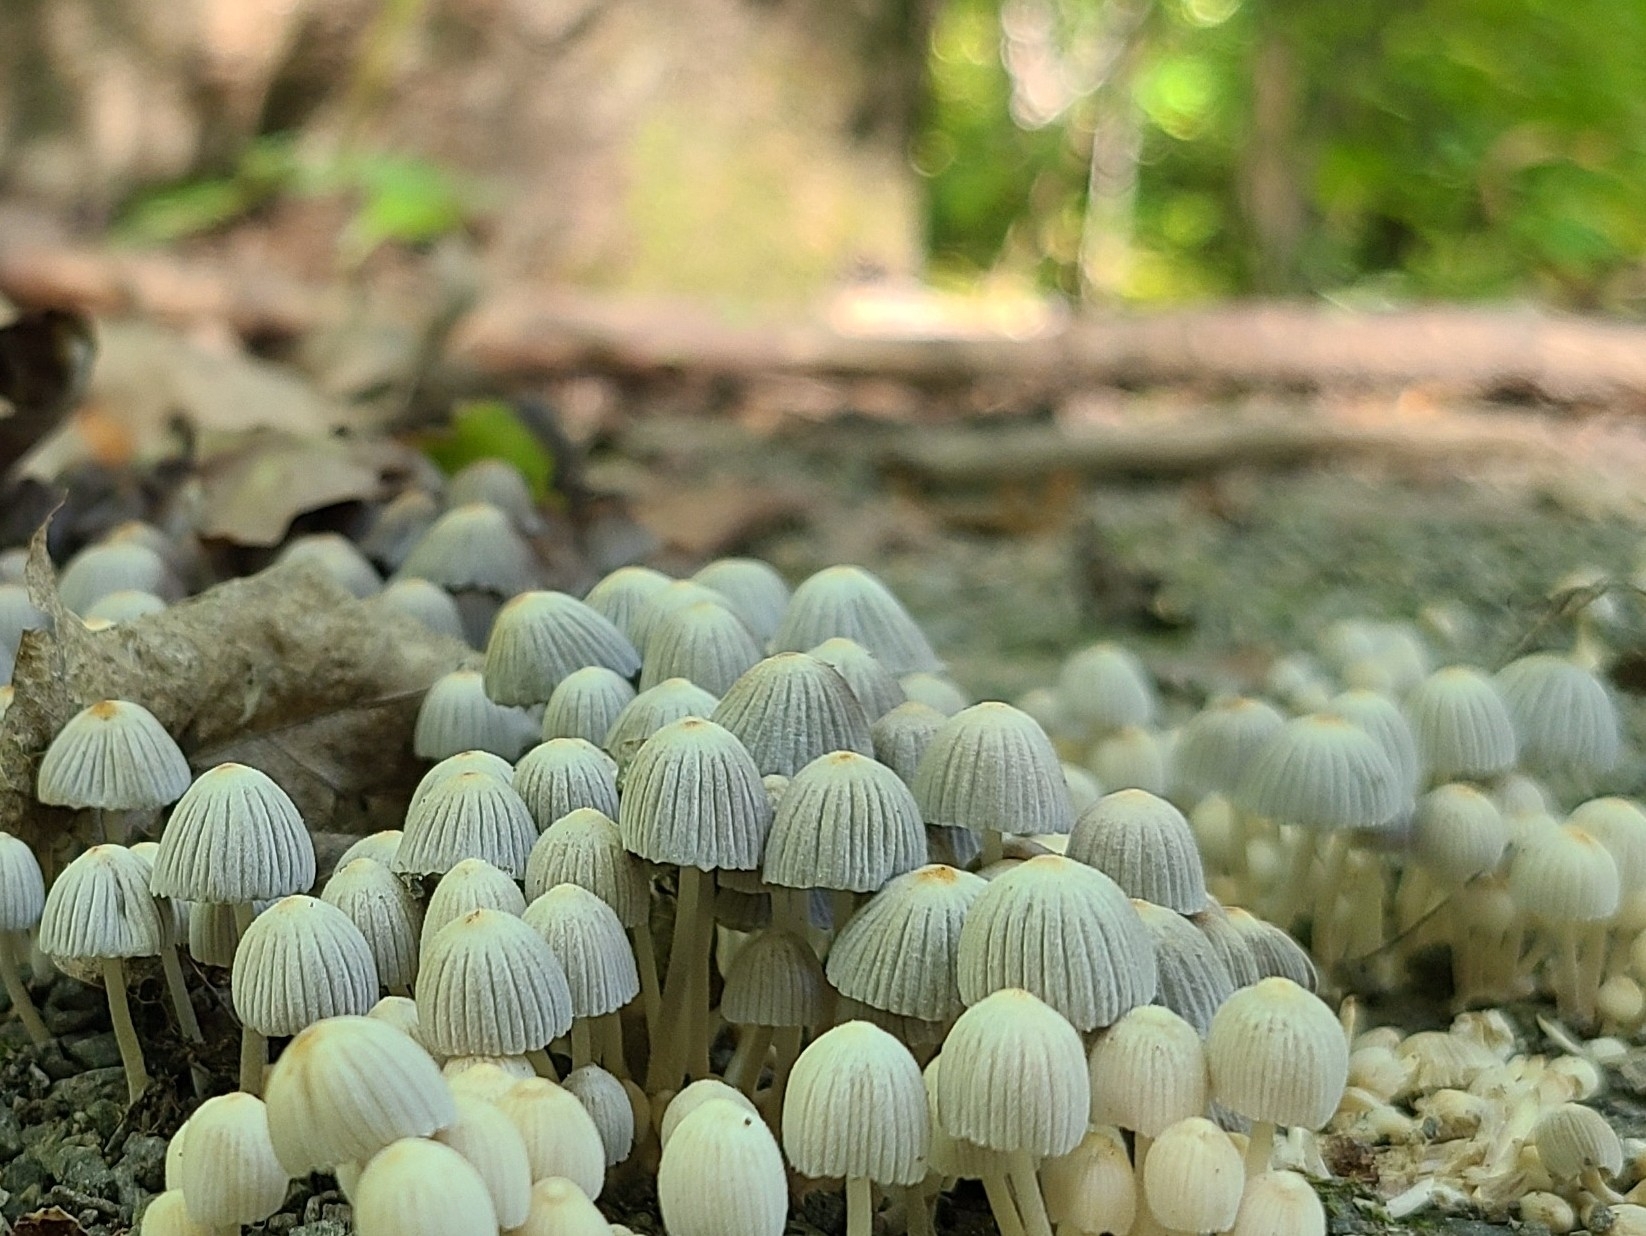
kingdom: Fungi
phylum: Basidiomycota
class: Agaricomycetes
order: Agaricales
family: Psathyrellaceae
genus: Coprinellus
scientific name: Coprinellus disseminatus
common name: Fairies' bonnets
